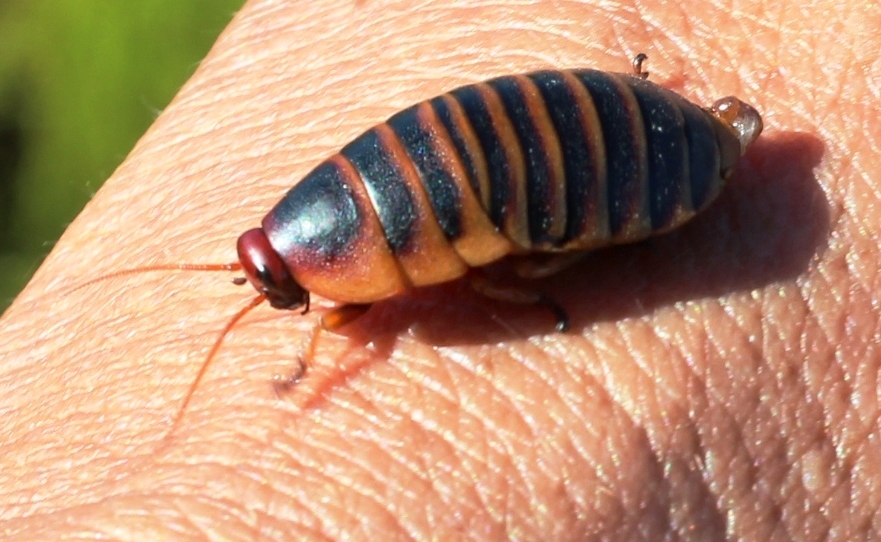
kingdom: Animalia
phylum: Arthropoda
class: Insecta
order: Blattodea
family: Blaberidae
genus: Aptera
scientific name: Aptera fusca
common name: Cape mountain cockroach
